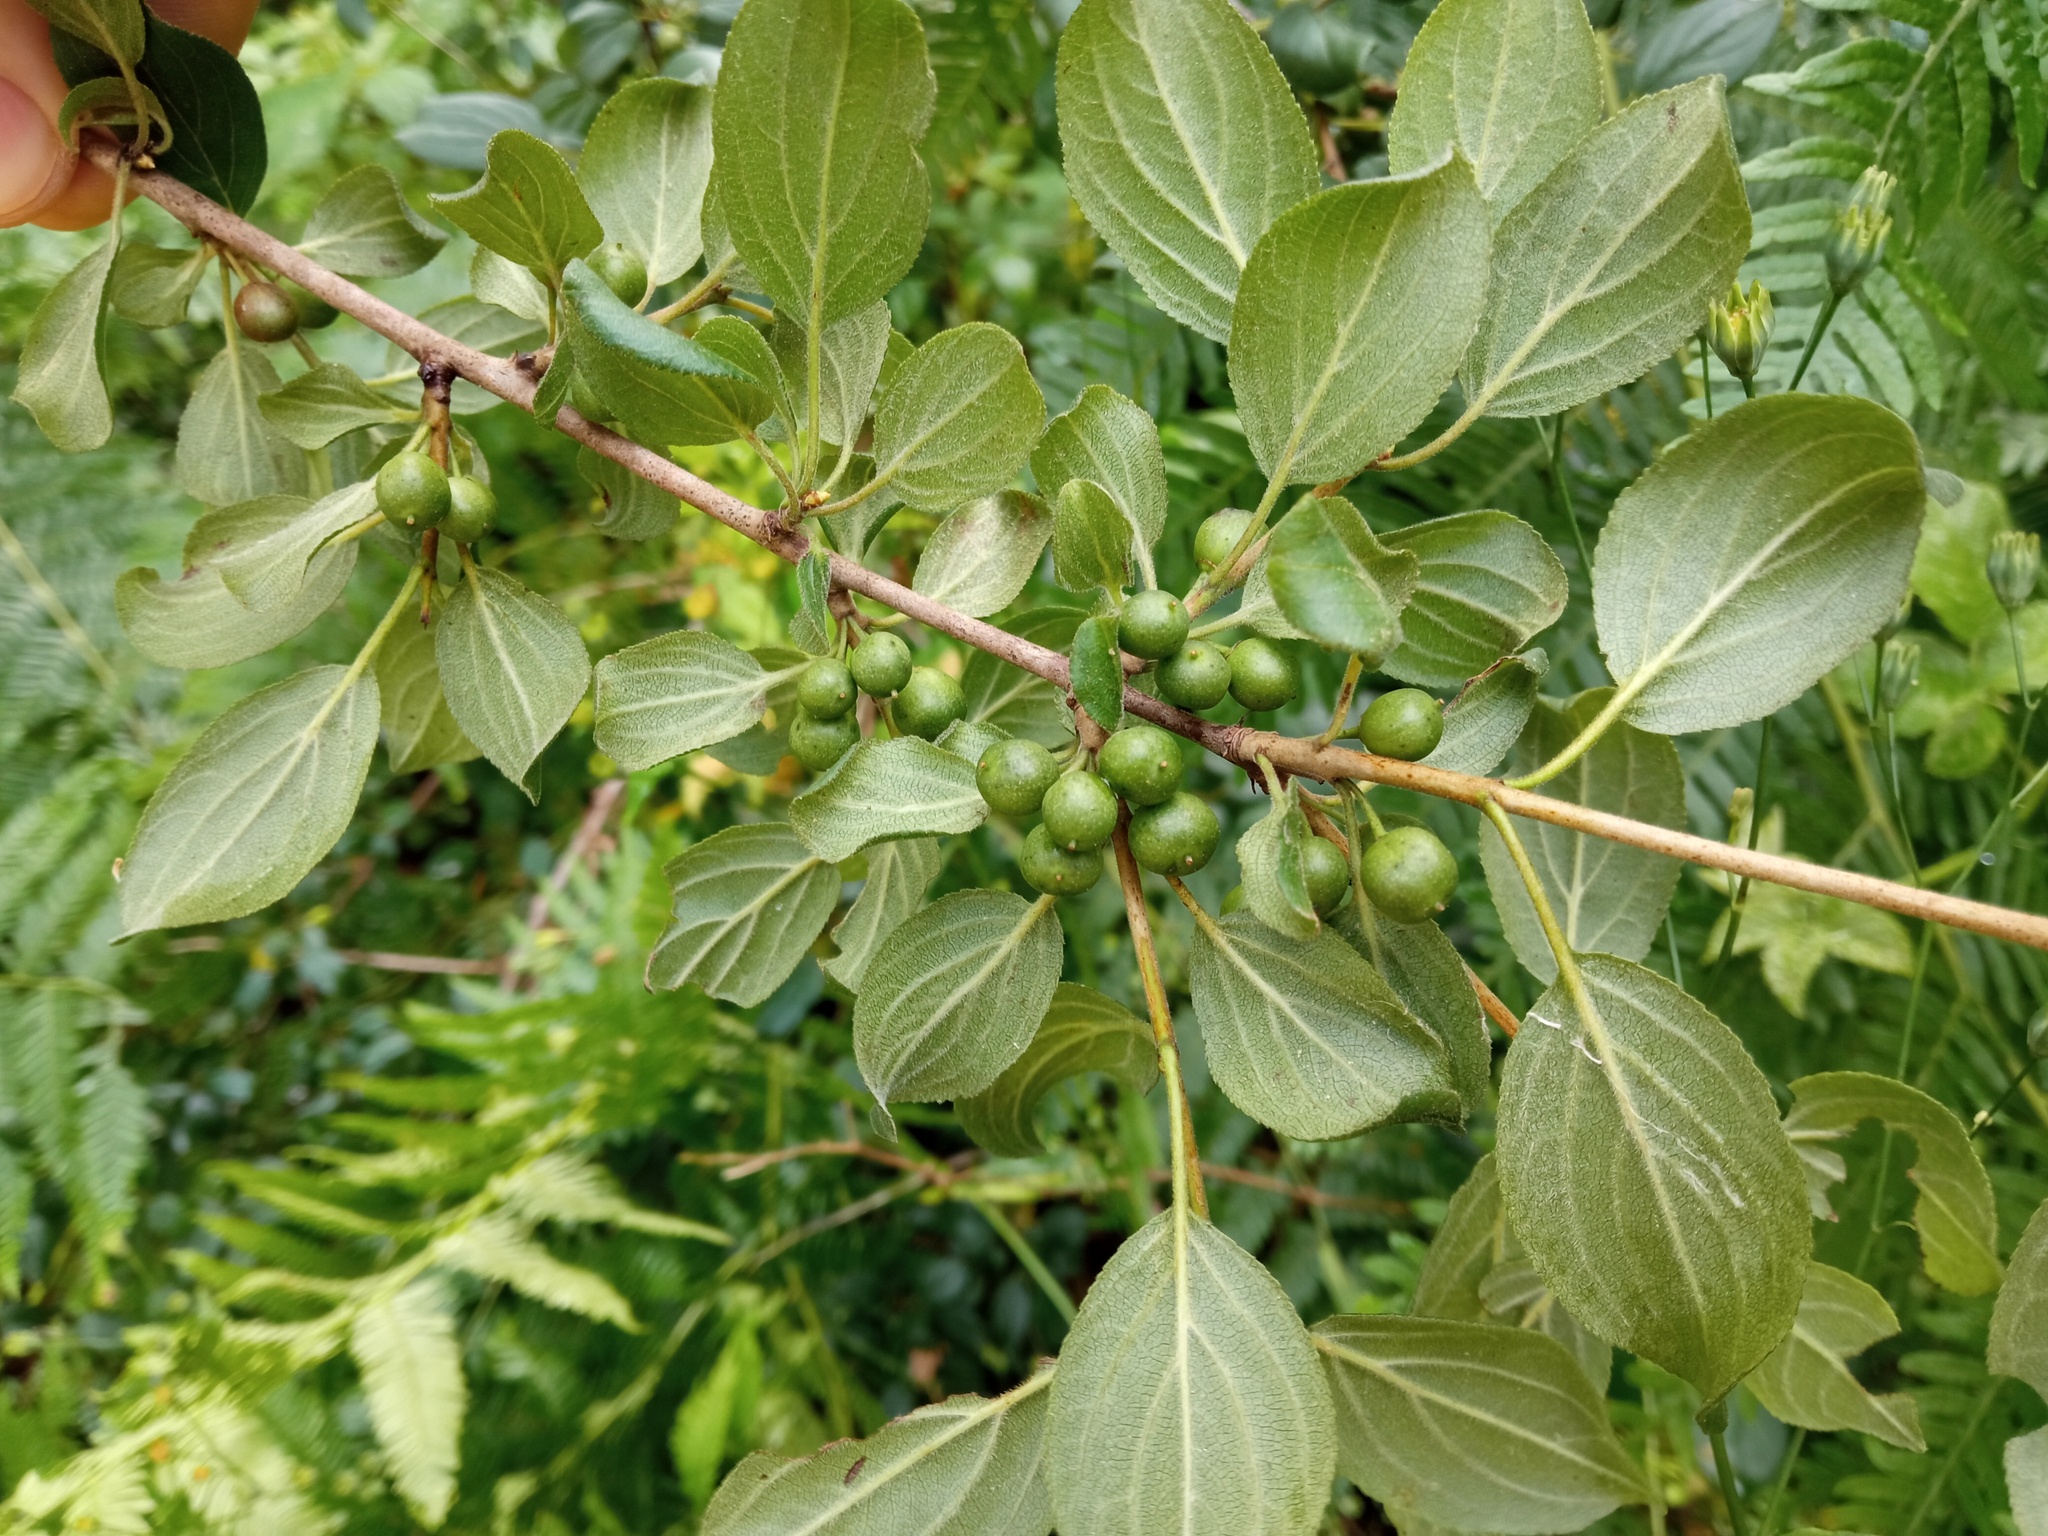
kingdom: Plantae
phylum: Tracheophyta
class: Magnoliopsida
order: Rosales
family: Rhamnaceae
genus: Rhamnus
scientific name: Rhamnus cathartica
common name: Common buckthorn
